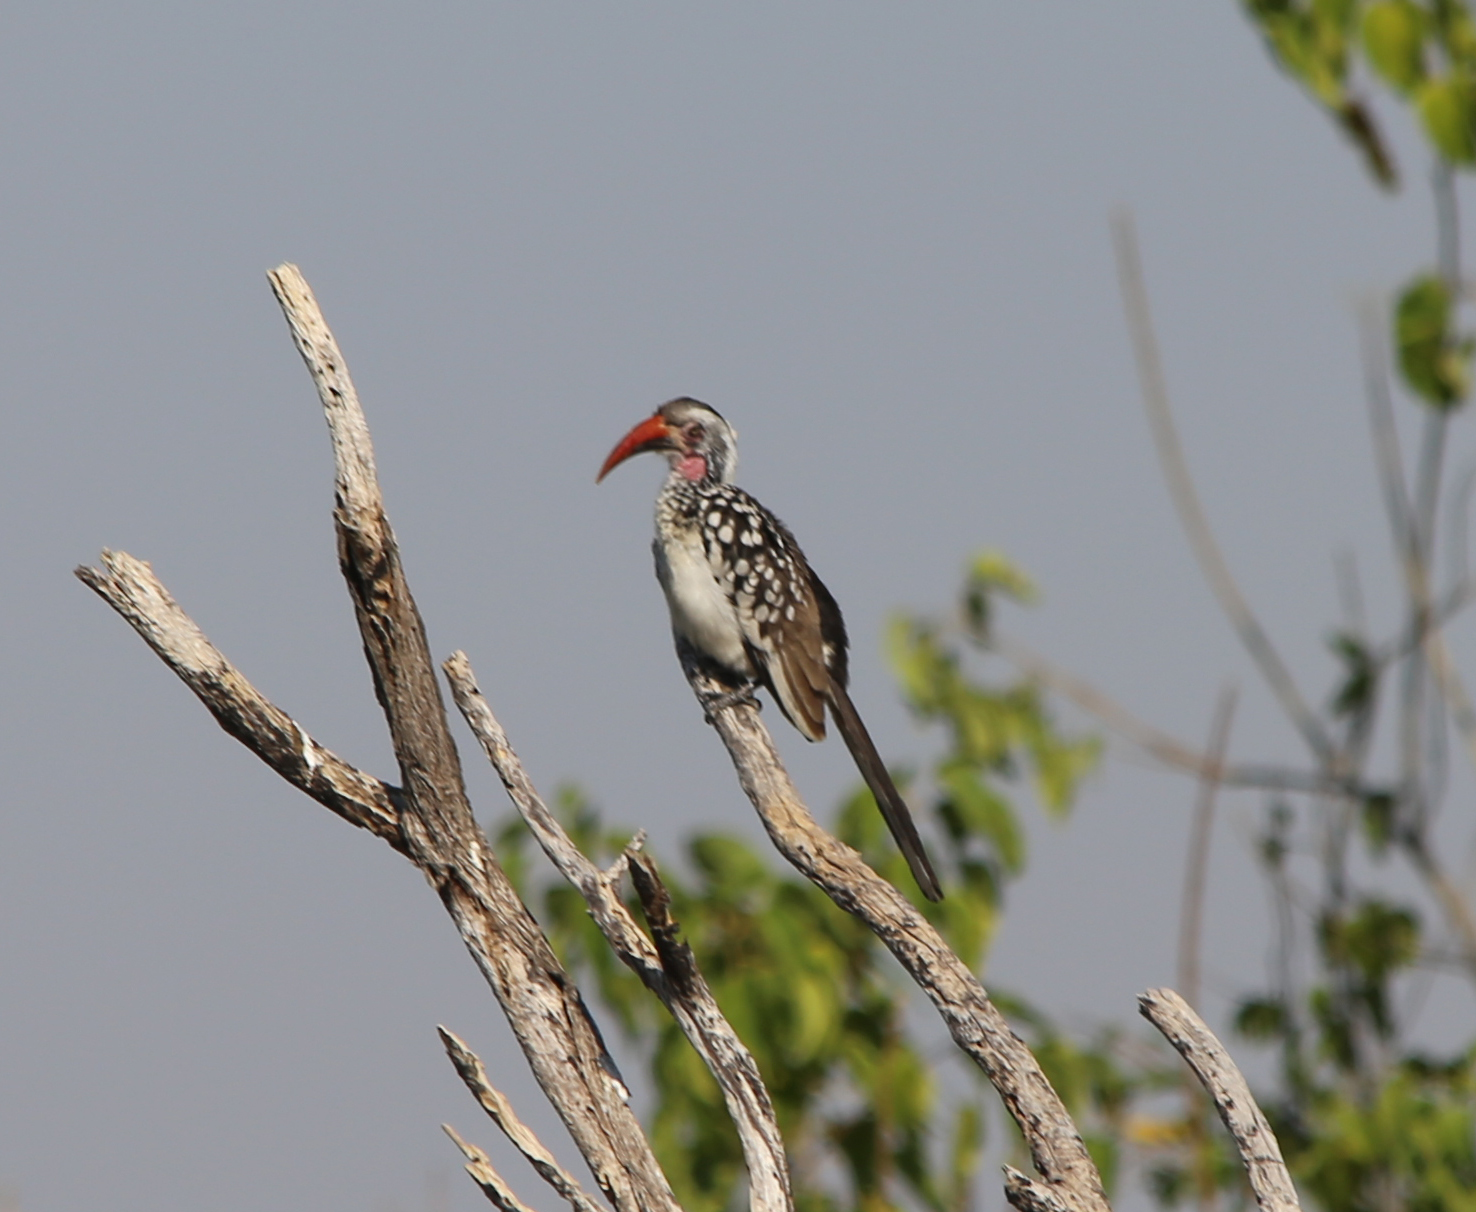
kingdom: Animalia
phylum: Chordata
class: Aves
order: Bucerotiformes
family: Bucerotidae
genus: Tockus
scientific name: Tockus rufirostris
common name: Southern red-billed hornbill
